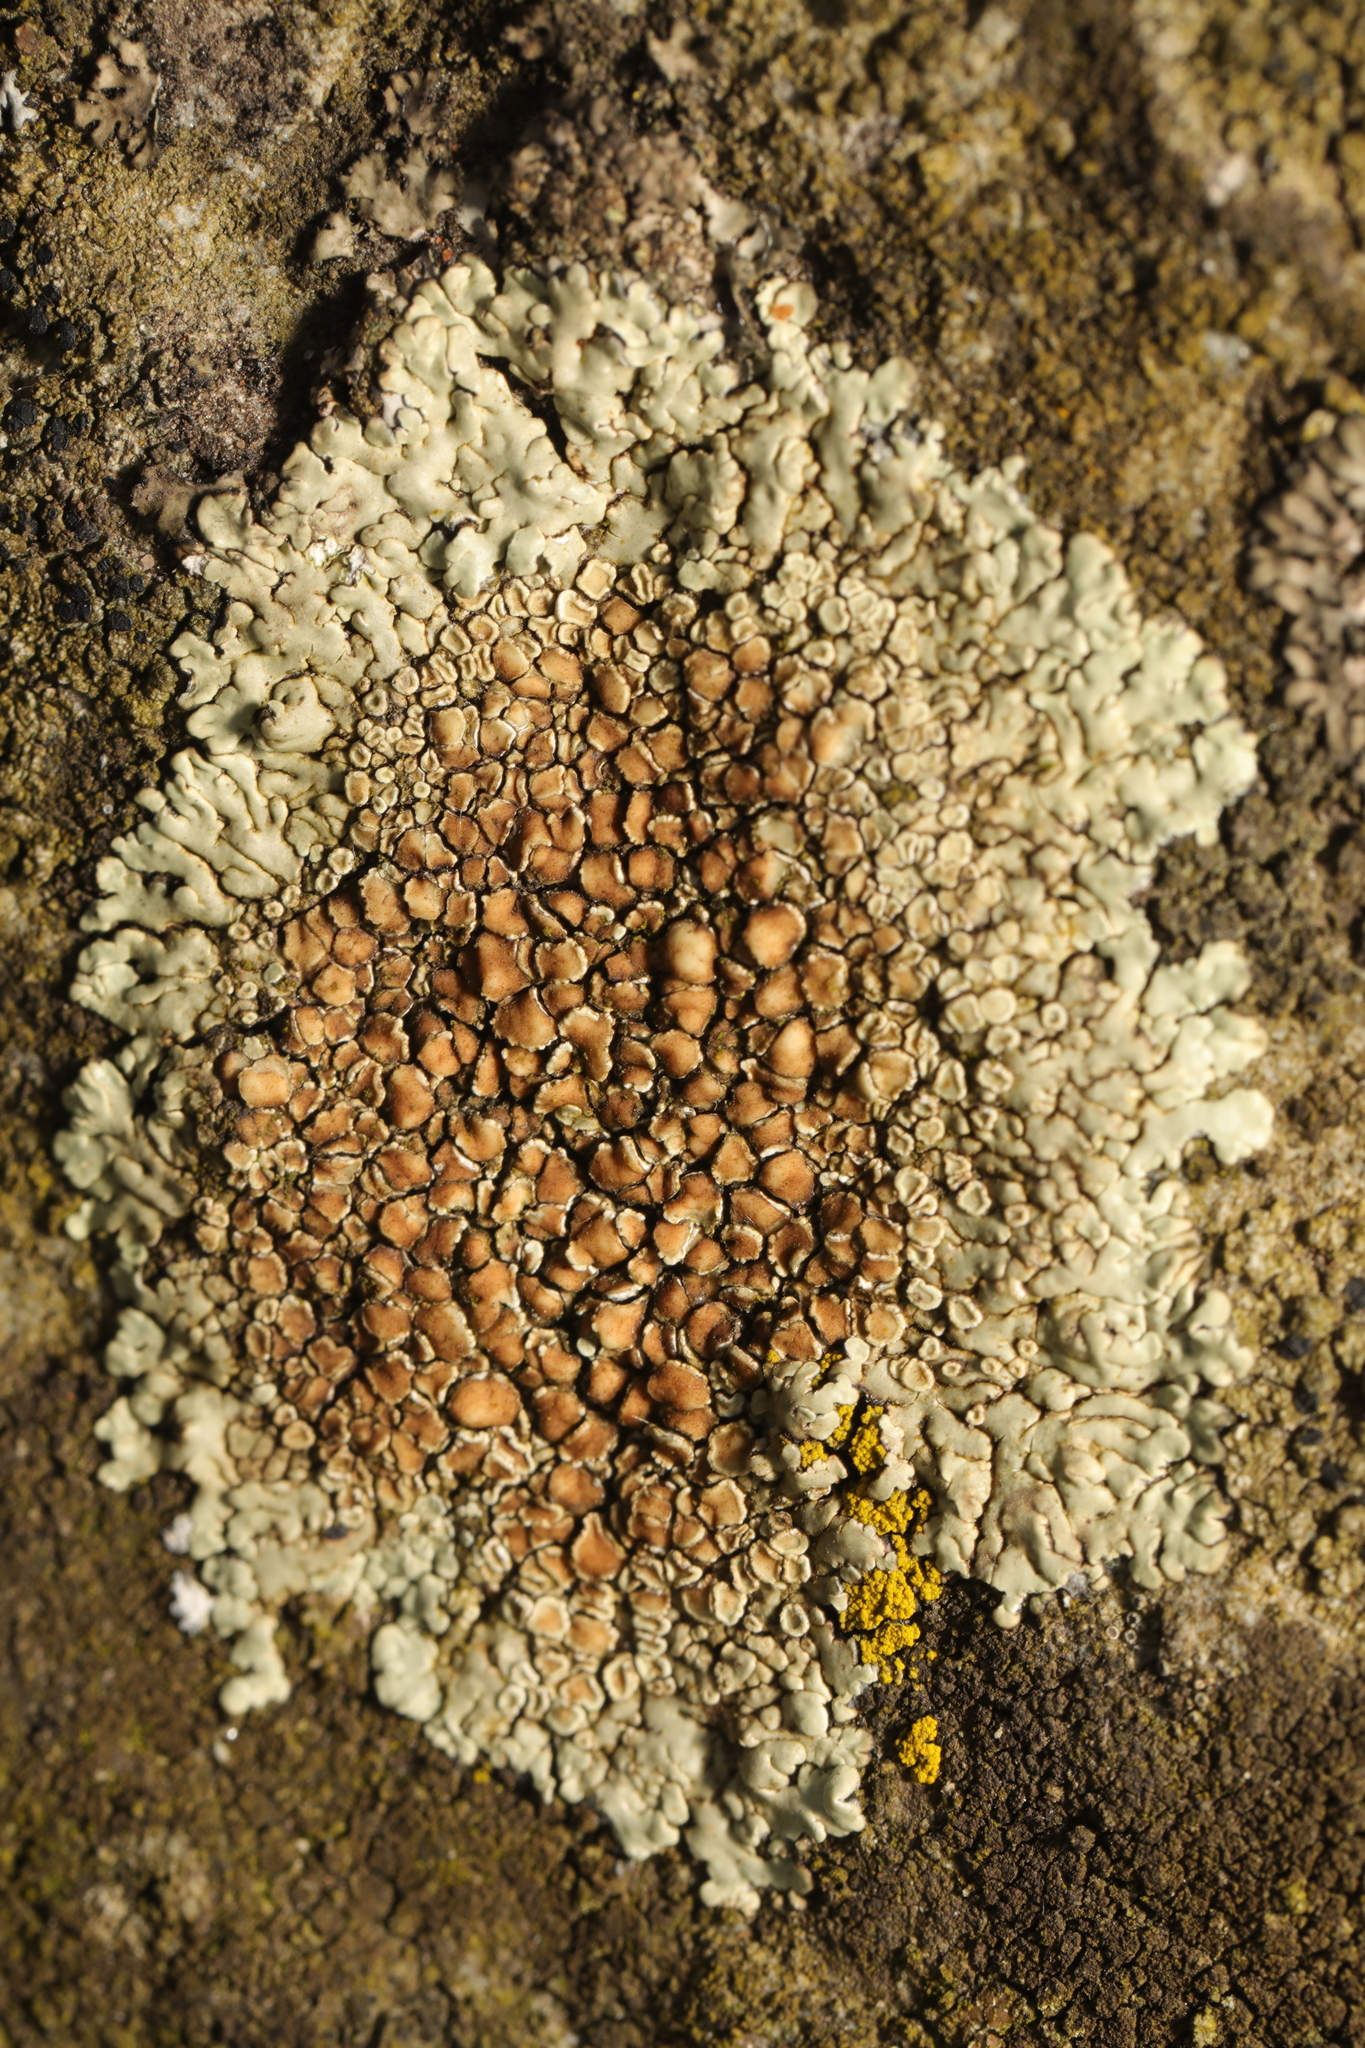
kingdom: Fungi
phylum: Ascomycota
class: Lecanoromycetes
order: Lecanorales
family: Lecanoraceae
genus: Protoparmeliopsis
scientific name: Protoparmeliopsis muralis
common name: Stonewall rim lichen
